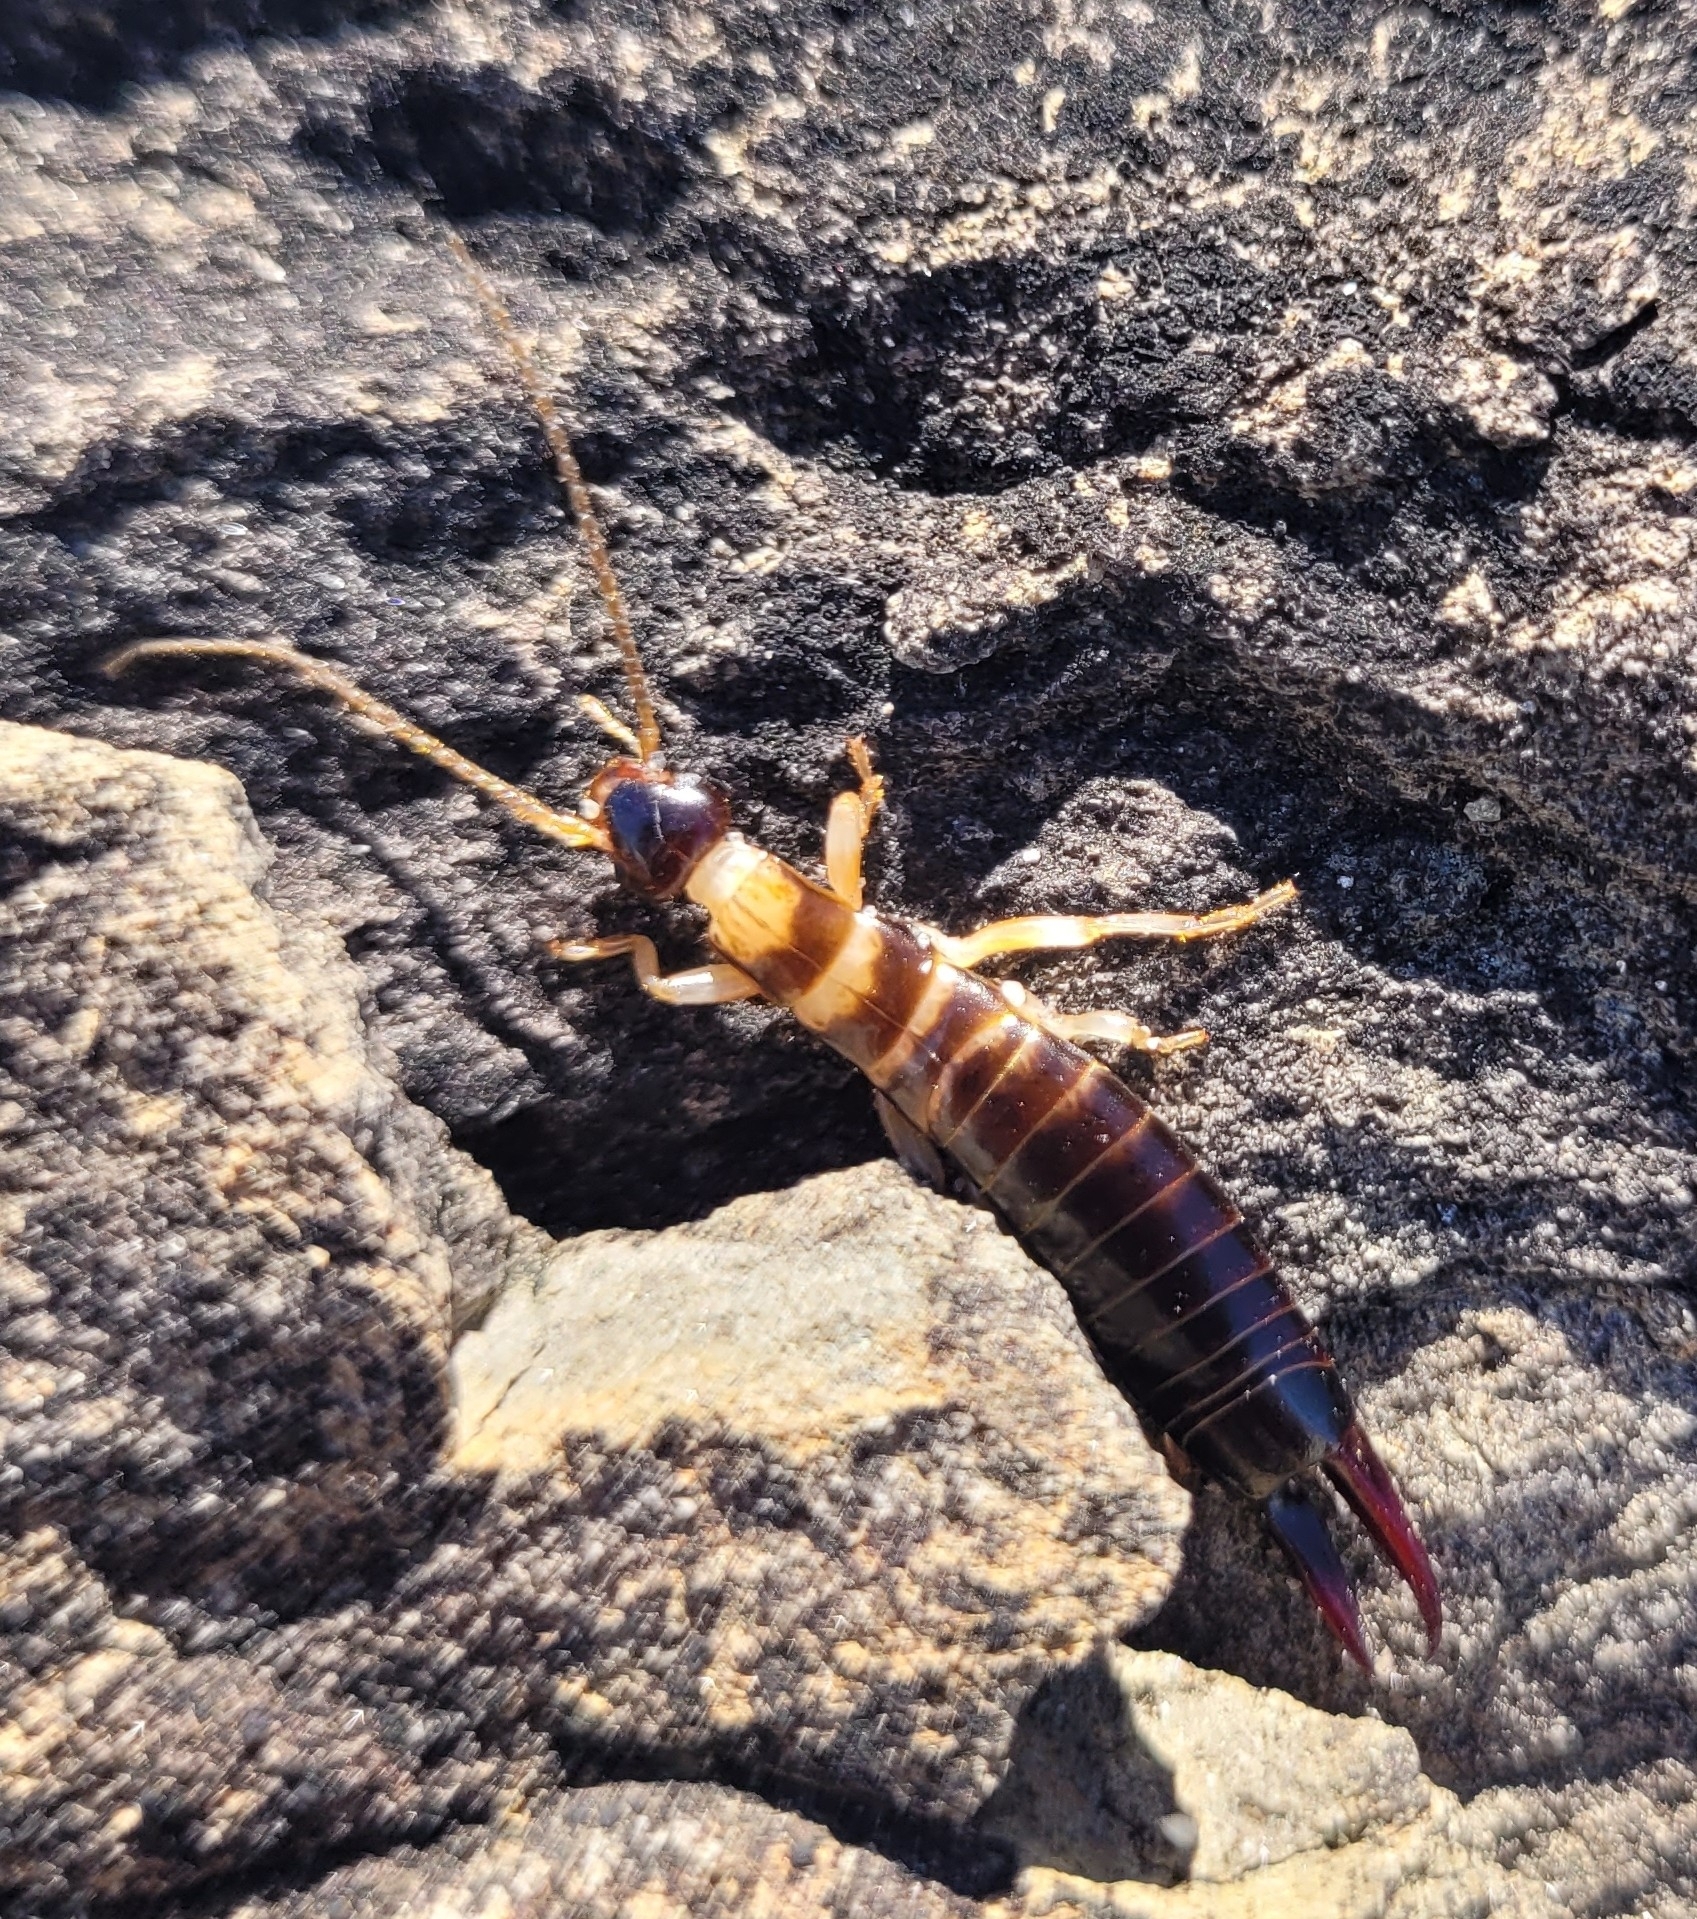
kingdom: Animalia
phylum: Arthropoda
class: Insecta
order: Dermaptera
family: Anisolabididae
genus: Anisolabis
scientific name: Anisolabis littorea
